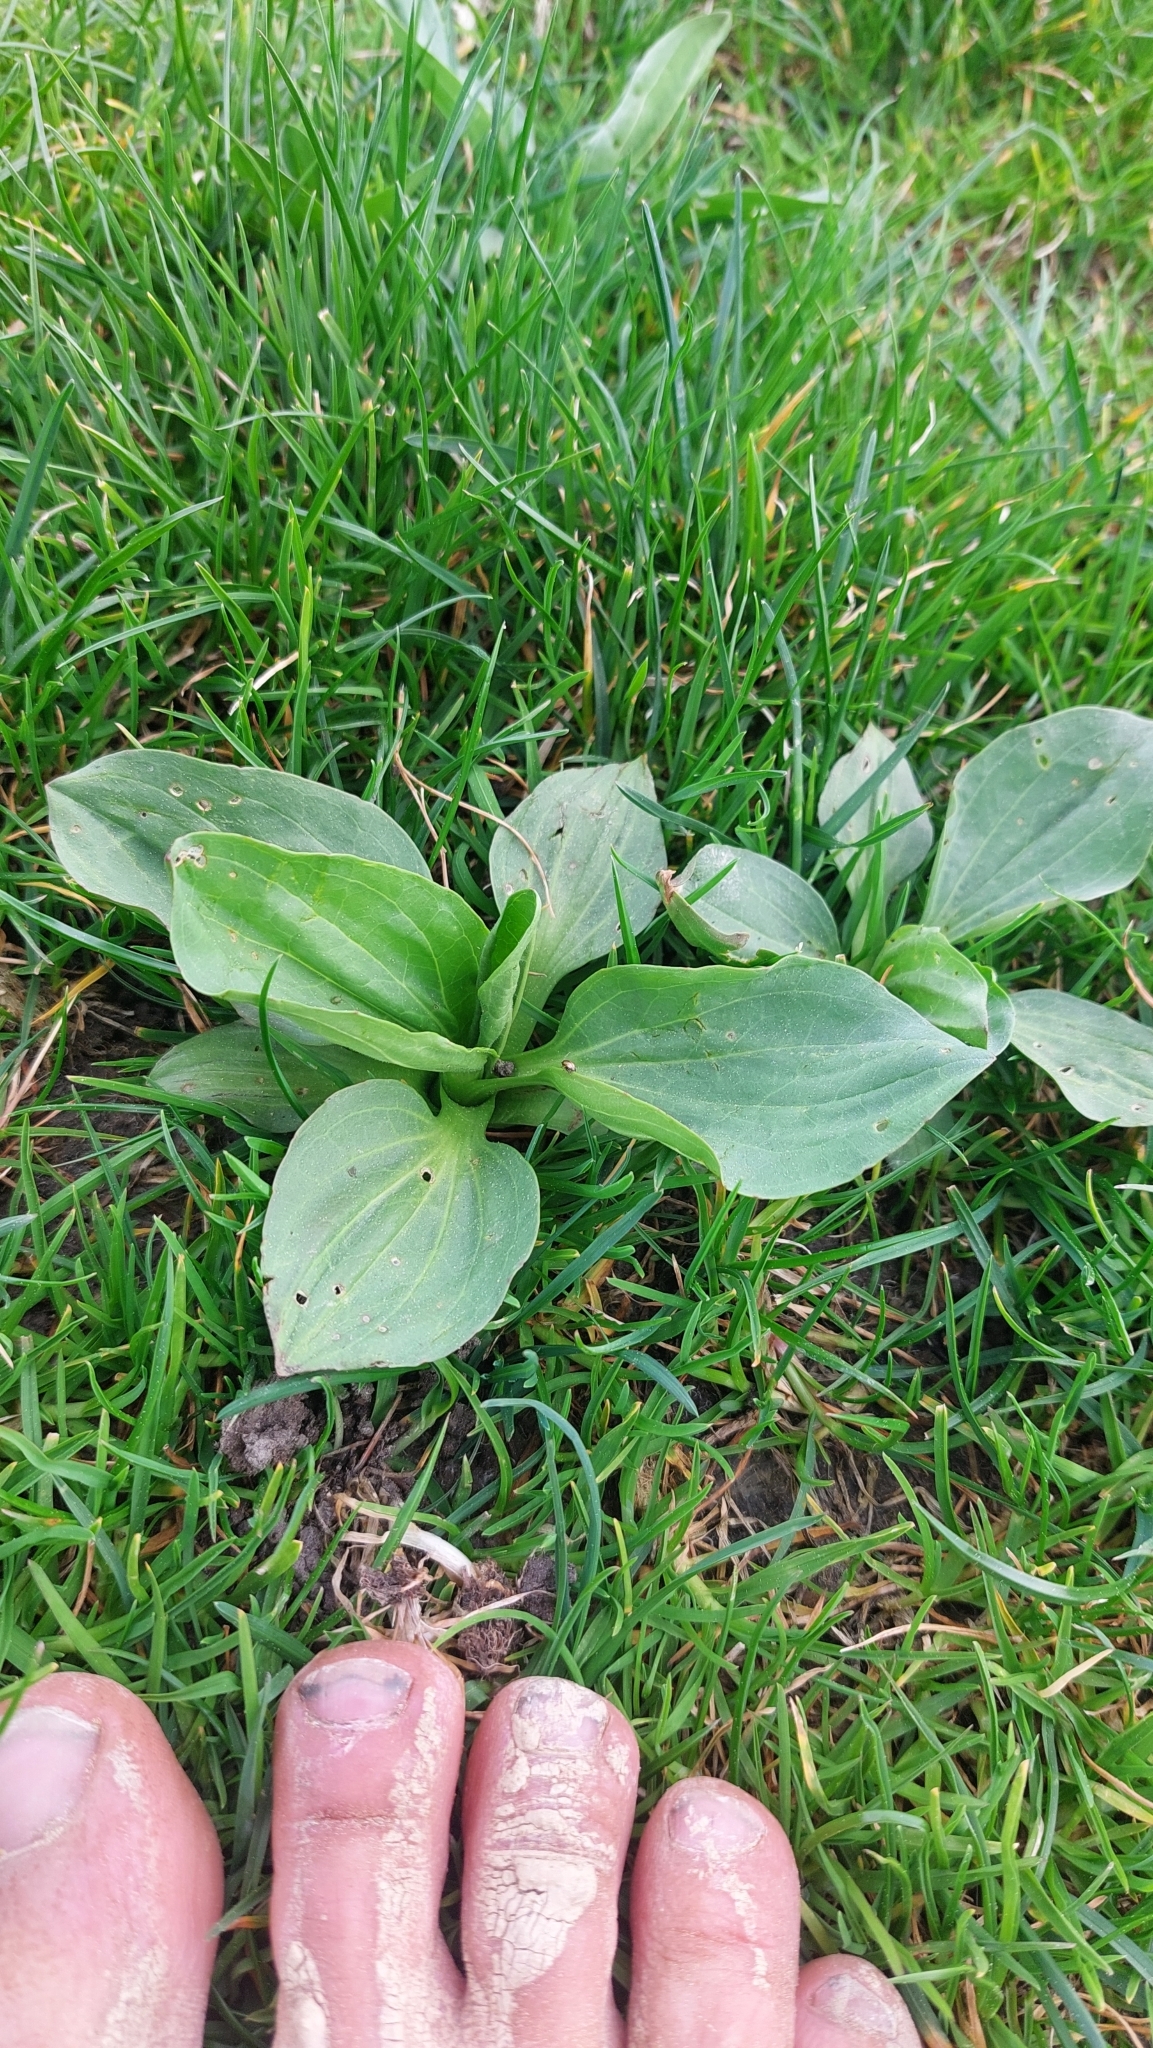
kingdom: Plantae
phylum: Tracheophyta
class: Magnoliopsida
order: Lamiales
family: Plantaginaceae
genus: Plantago
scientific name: Plantago major
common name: Common plantain
